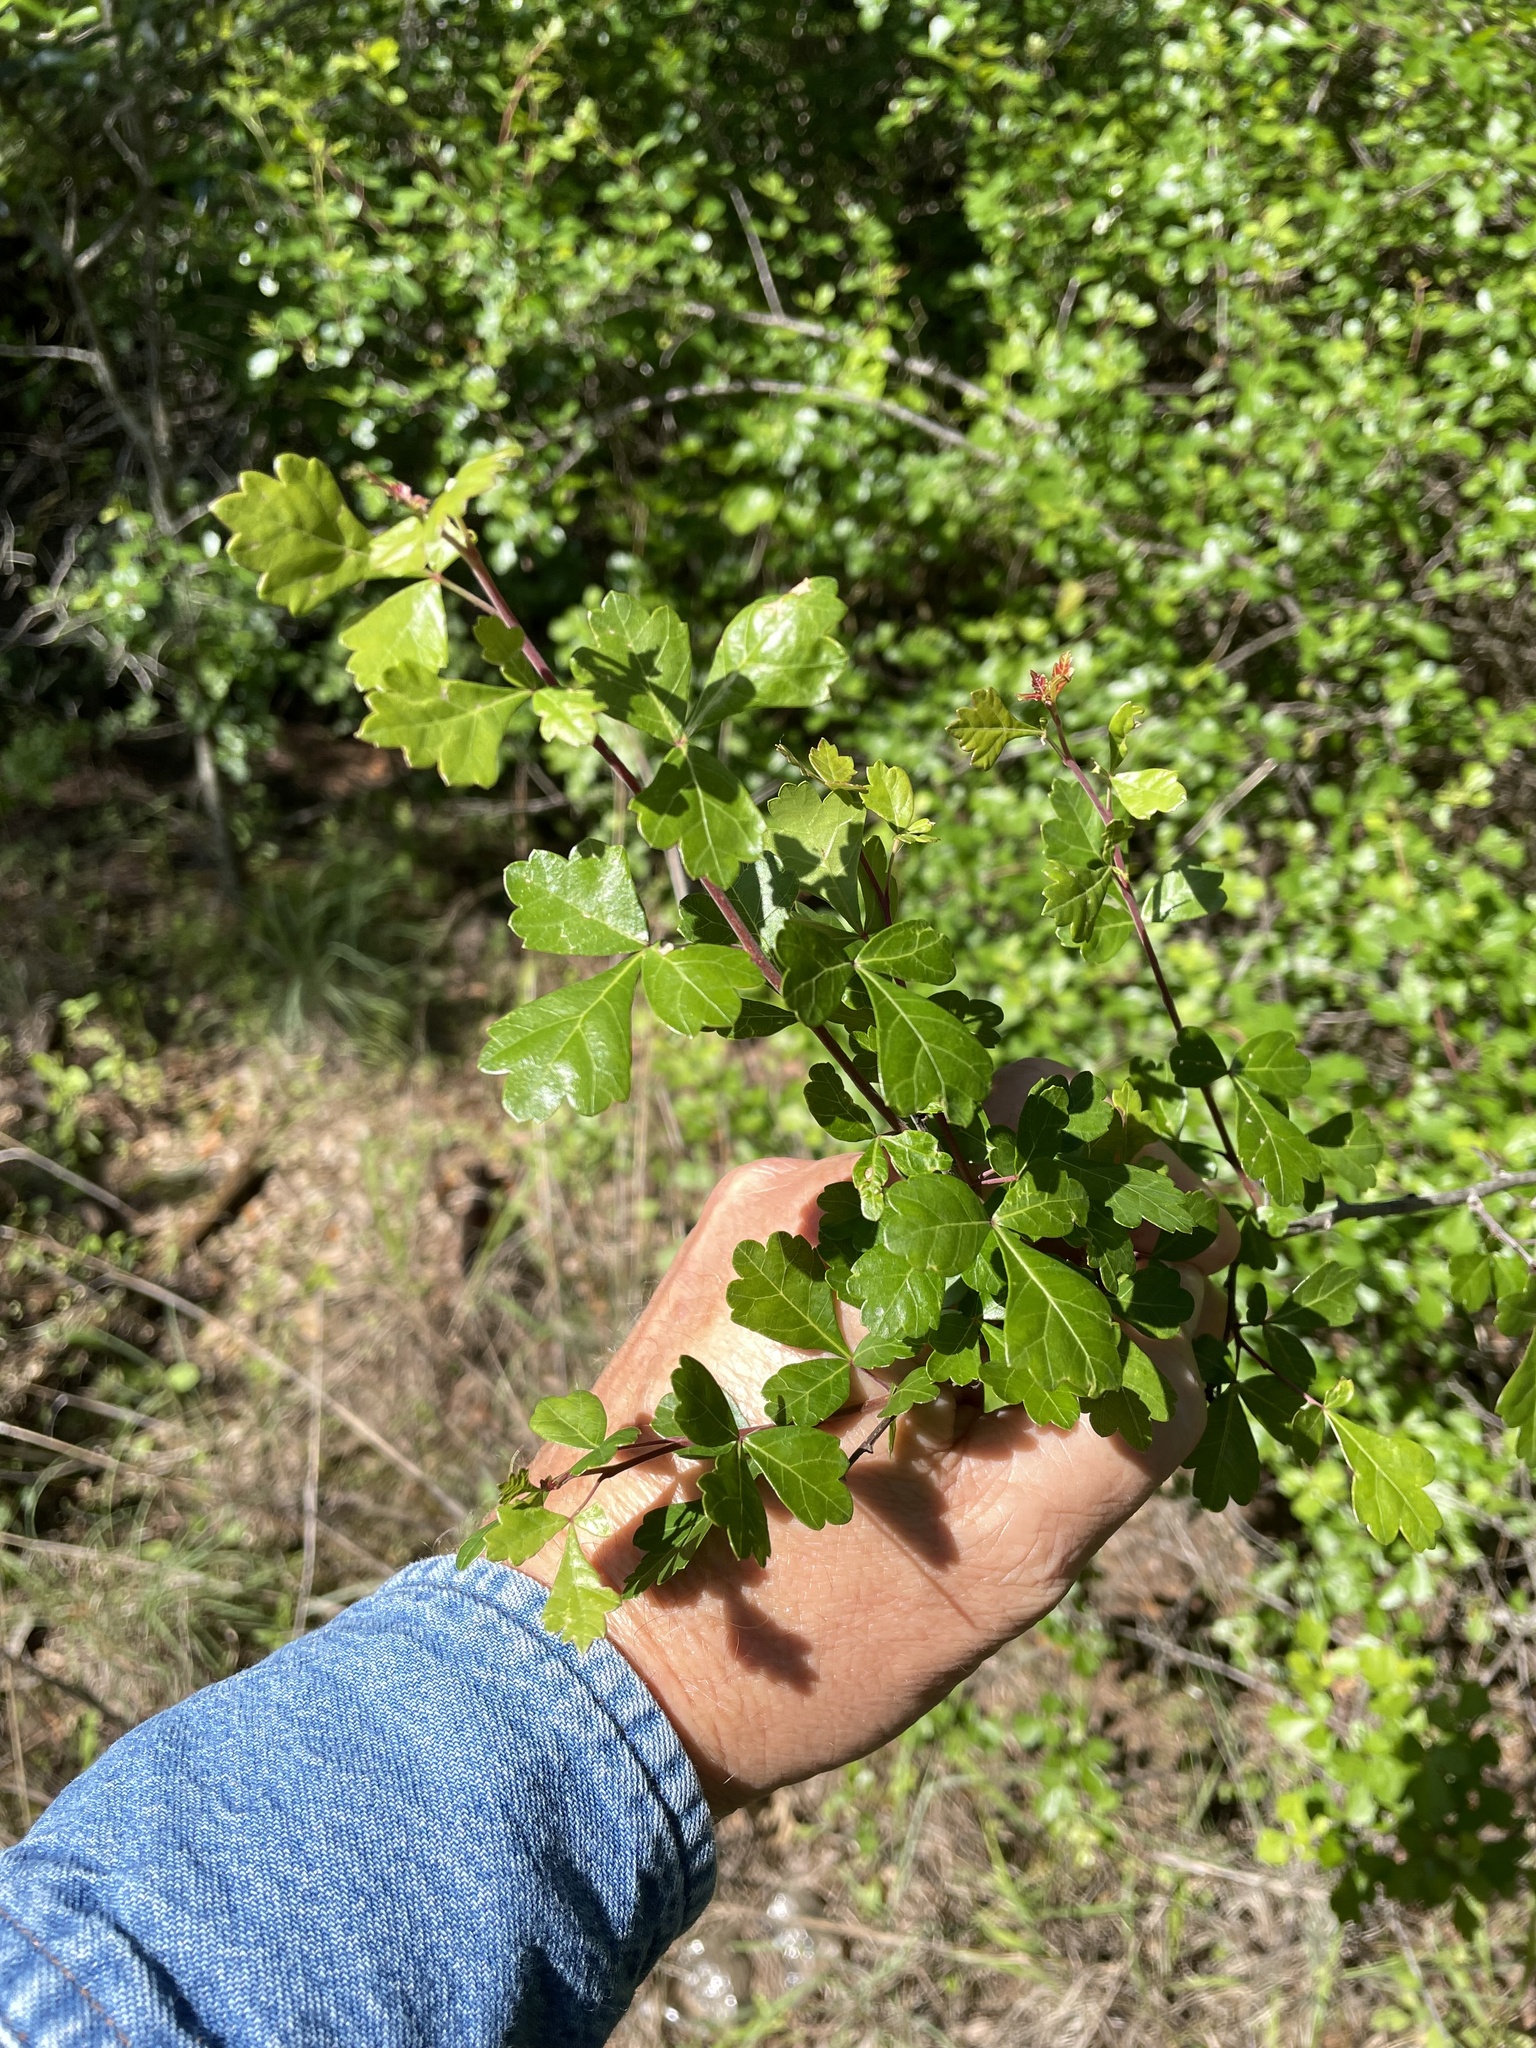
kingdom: Plantae
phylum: Tracheophyta
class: Magnoliopsida
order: Sapindales
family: Anacardiaceae
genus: Rhus
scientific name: Rhus aromatica
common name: Aromatic sumac
